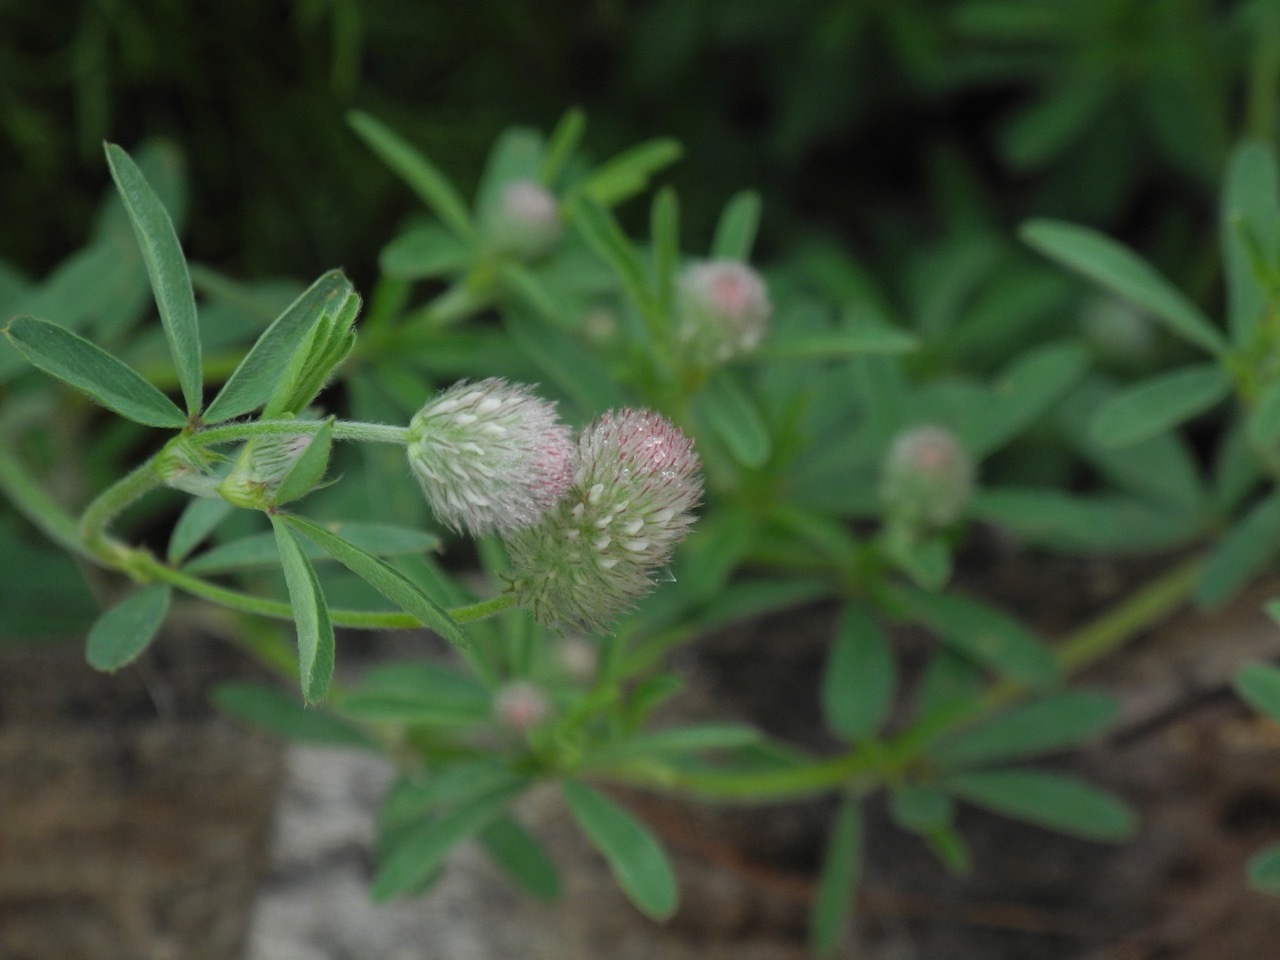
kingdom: Plantae
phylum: Tracheophyta
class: Magnoliopsida
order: Fabales
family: Fabaceae
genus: Trifolium
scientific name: Trifolium arvense
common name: Hare's-foot clover
